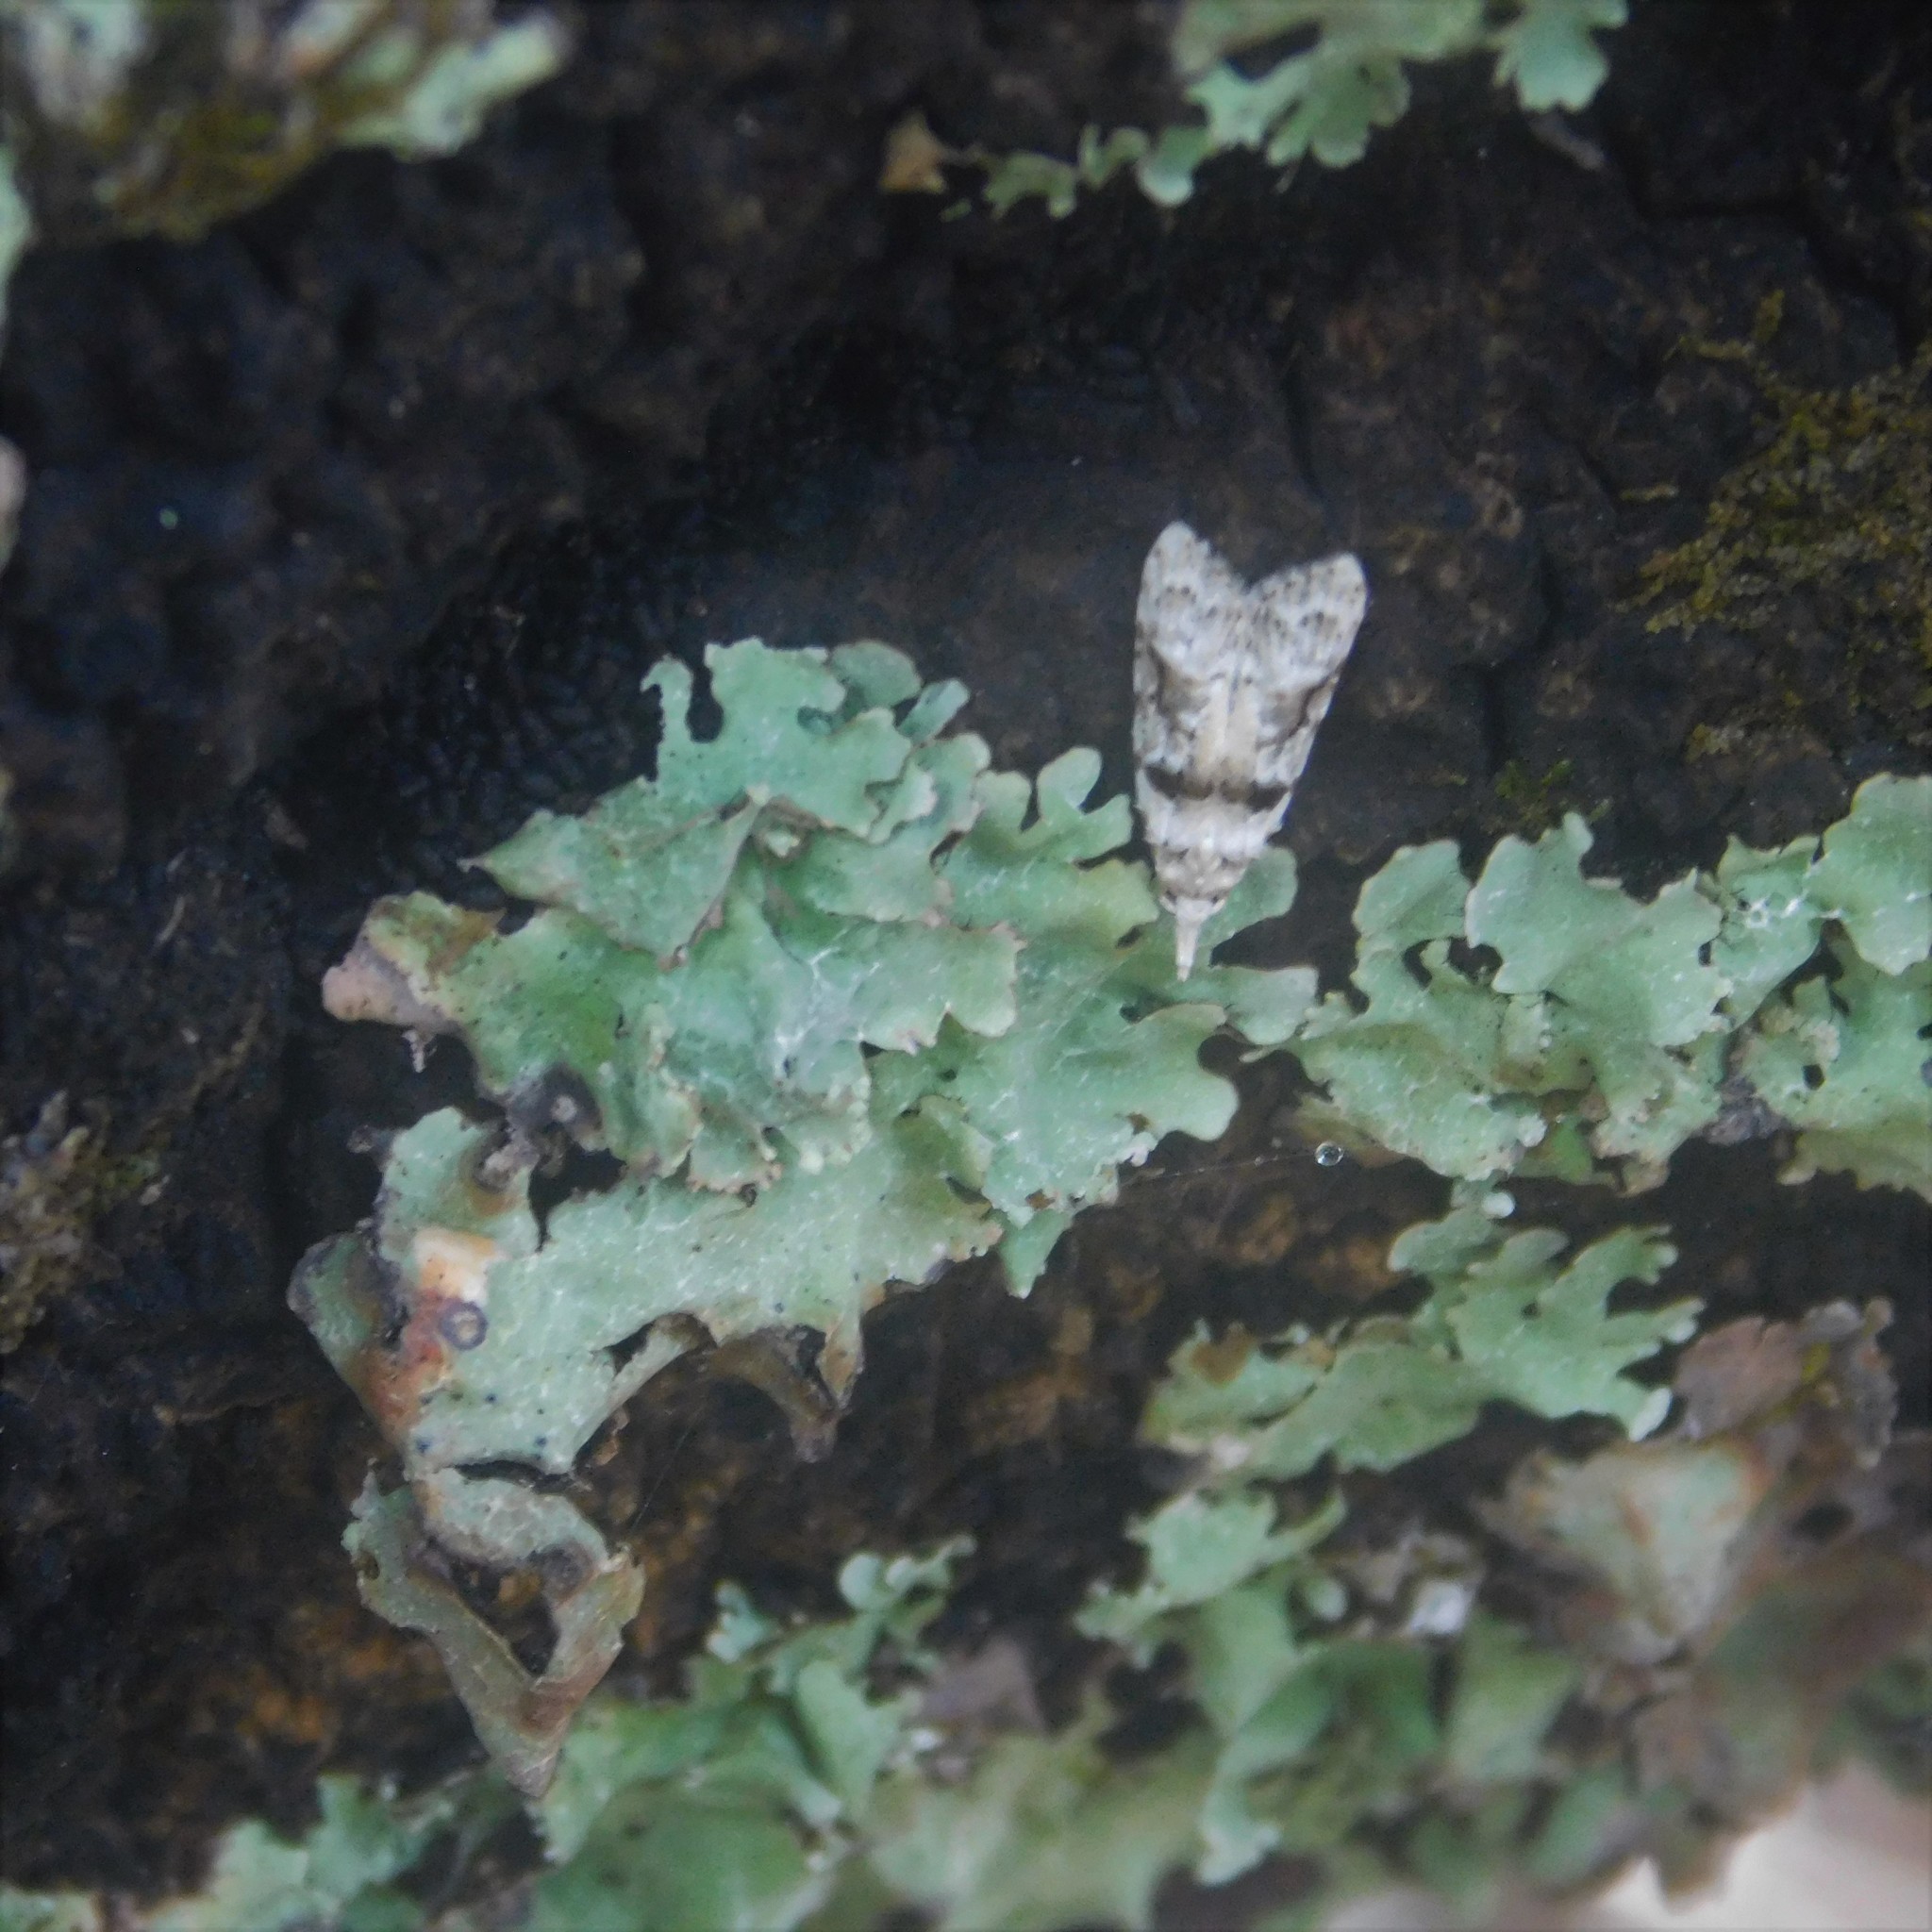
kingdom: Animalia
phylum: Arthropoda
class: Insecta
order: Lepidoptera
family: Carposinidae
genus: Coscinoptycha
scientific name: Coscinoptycha improbana
